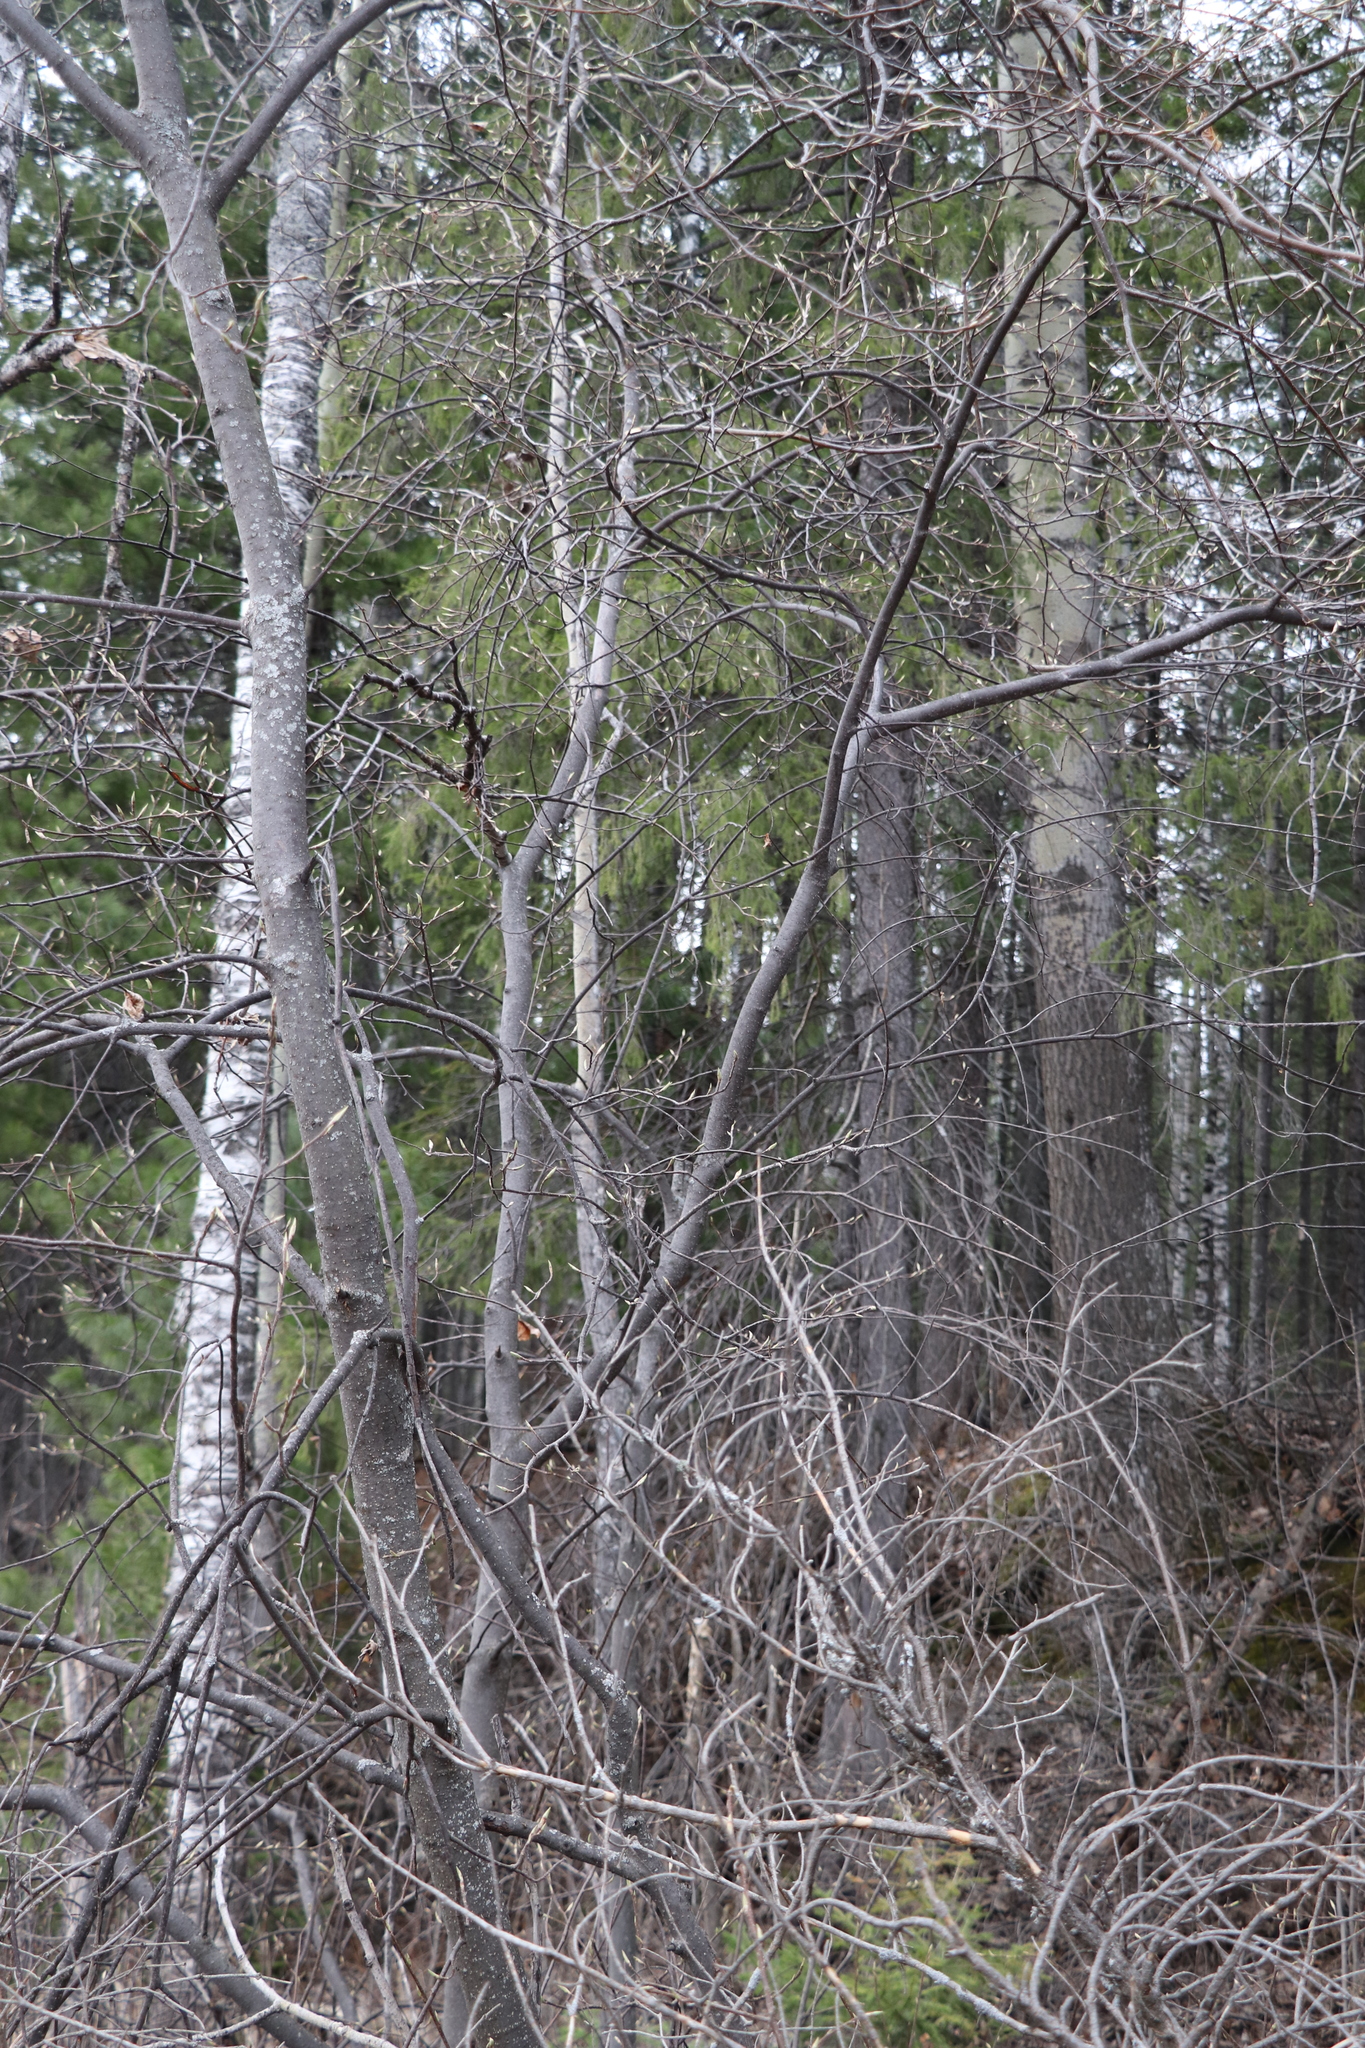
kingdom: Plantae
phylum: Tracheophyta
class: Magnoliopsida
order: Rosales
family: Rosaceae
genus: Prunus
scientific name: Prunus padus
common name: Bird cherry
